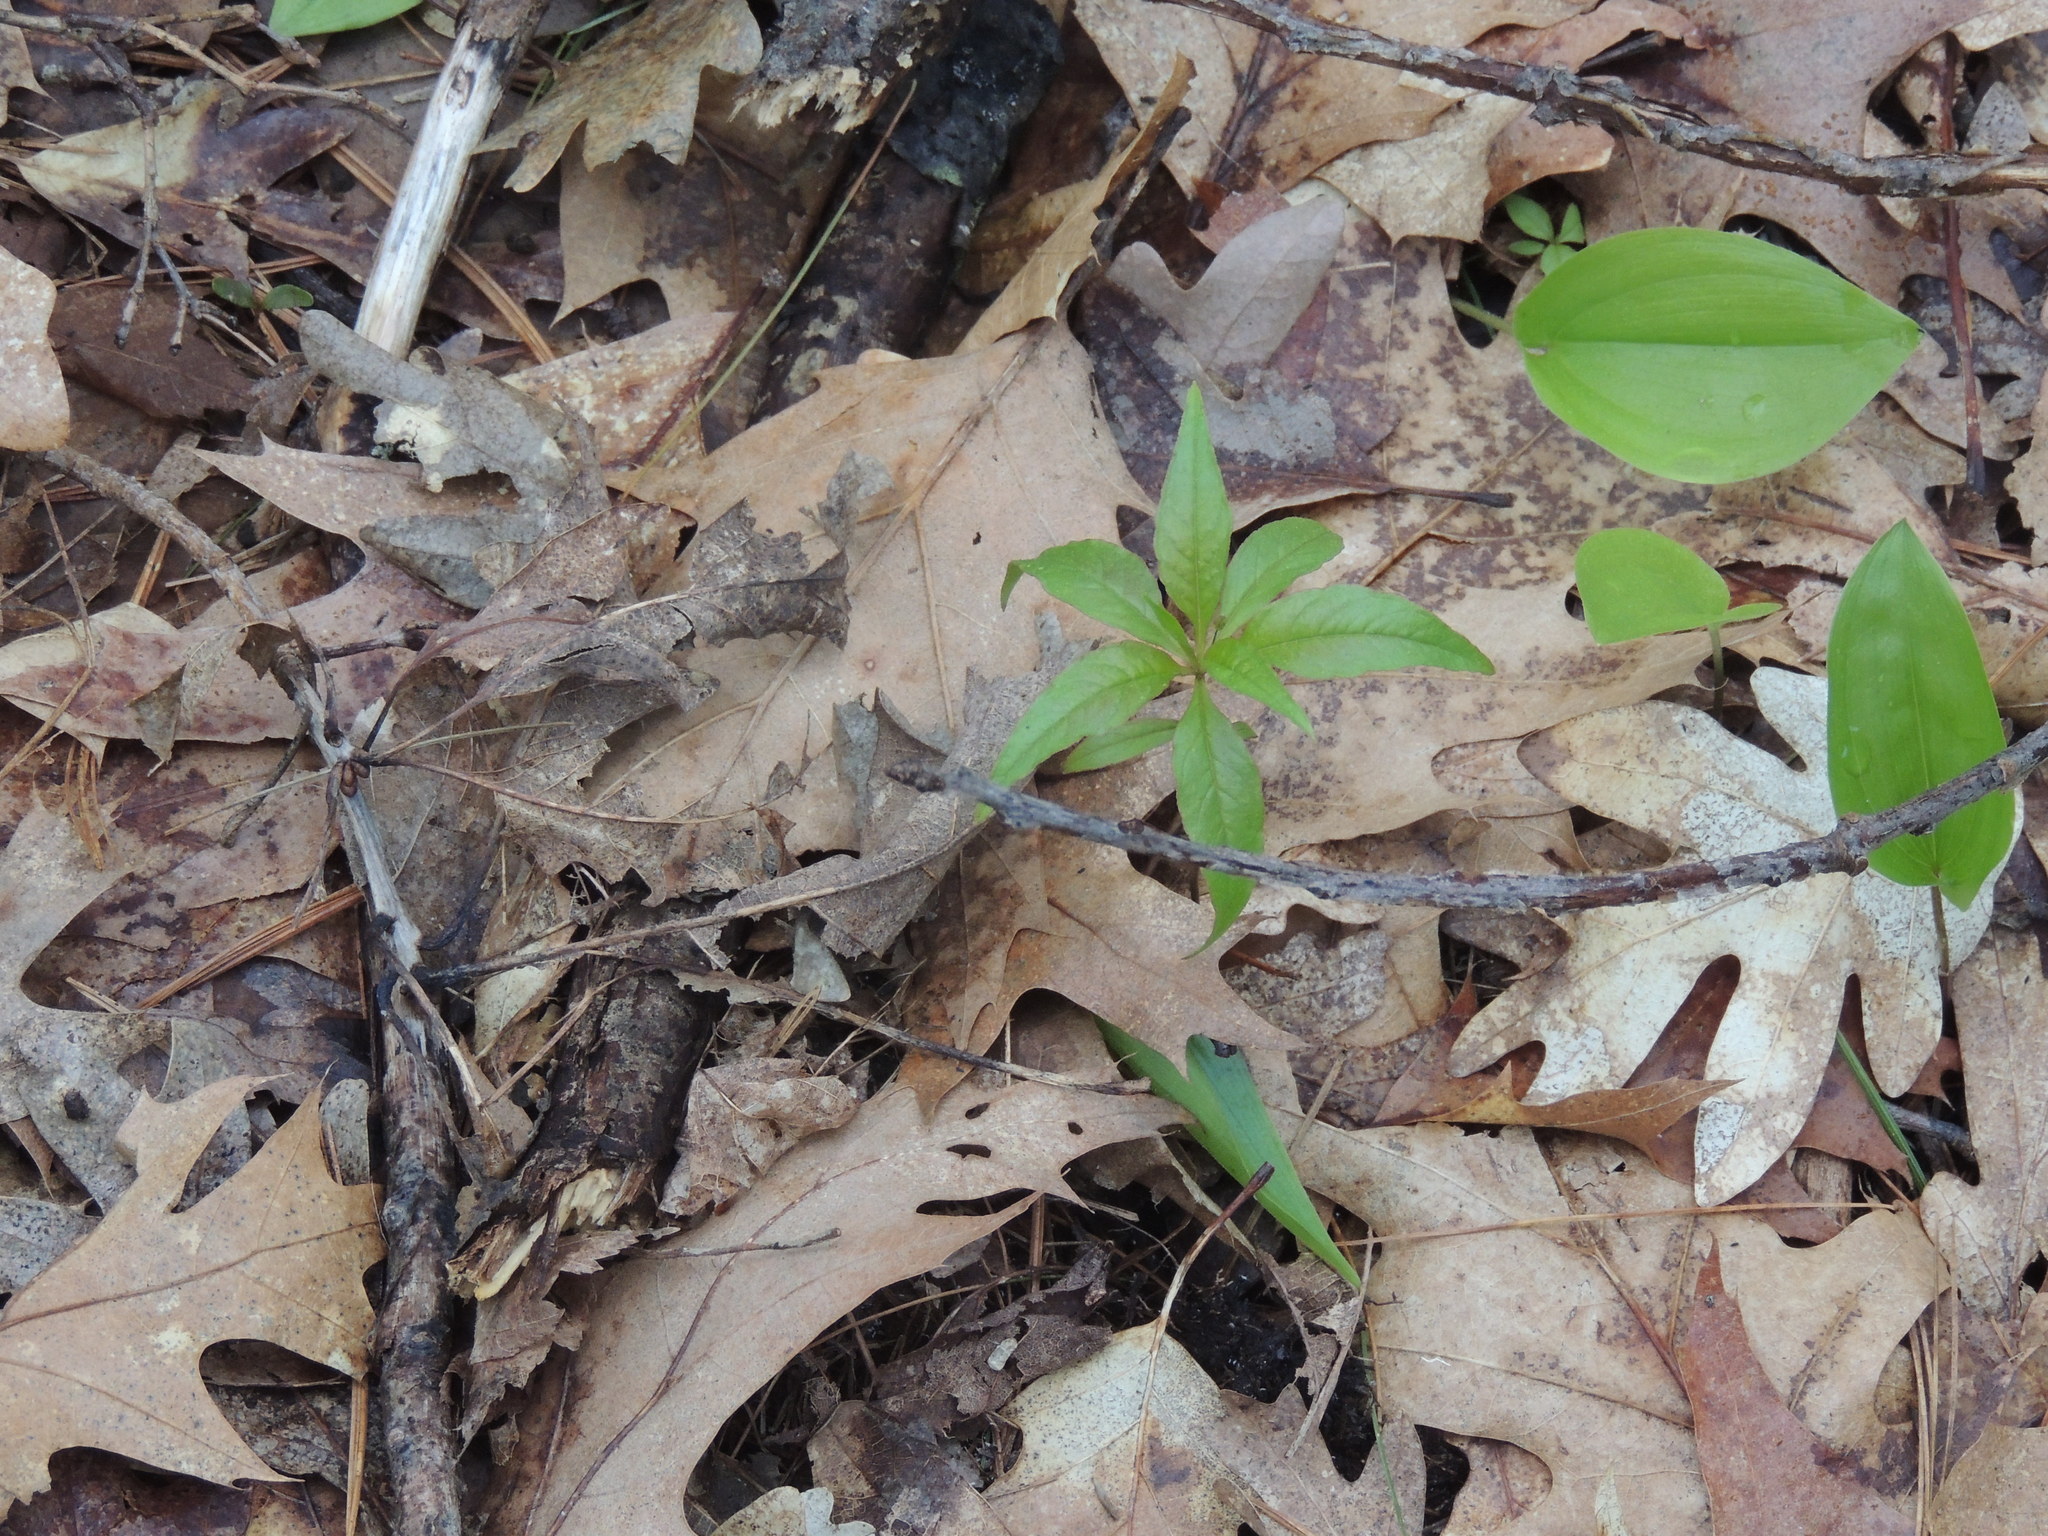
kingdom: Plantae
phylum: Tracheophyta
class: Magnoliopsida
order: Ericales
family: Primulaceae
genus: Lysimachia
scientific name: Lysimachia borealis
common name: American starflower
